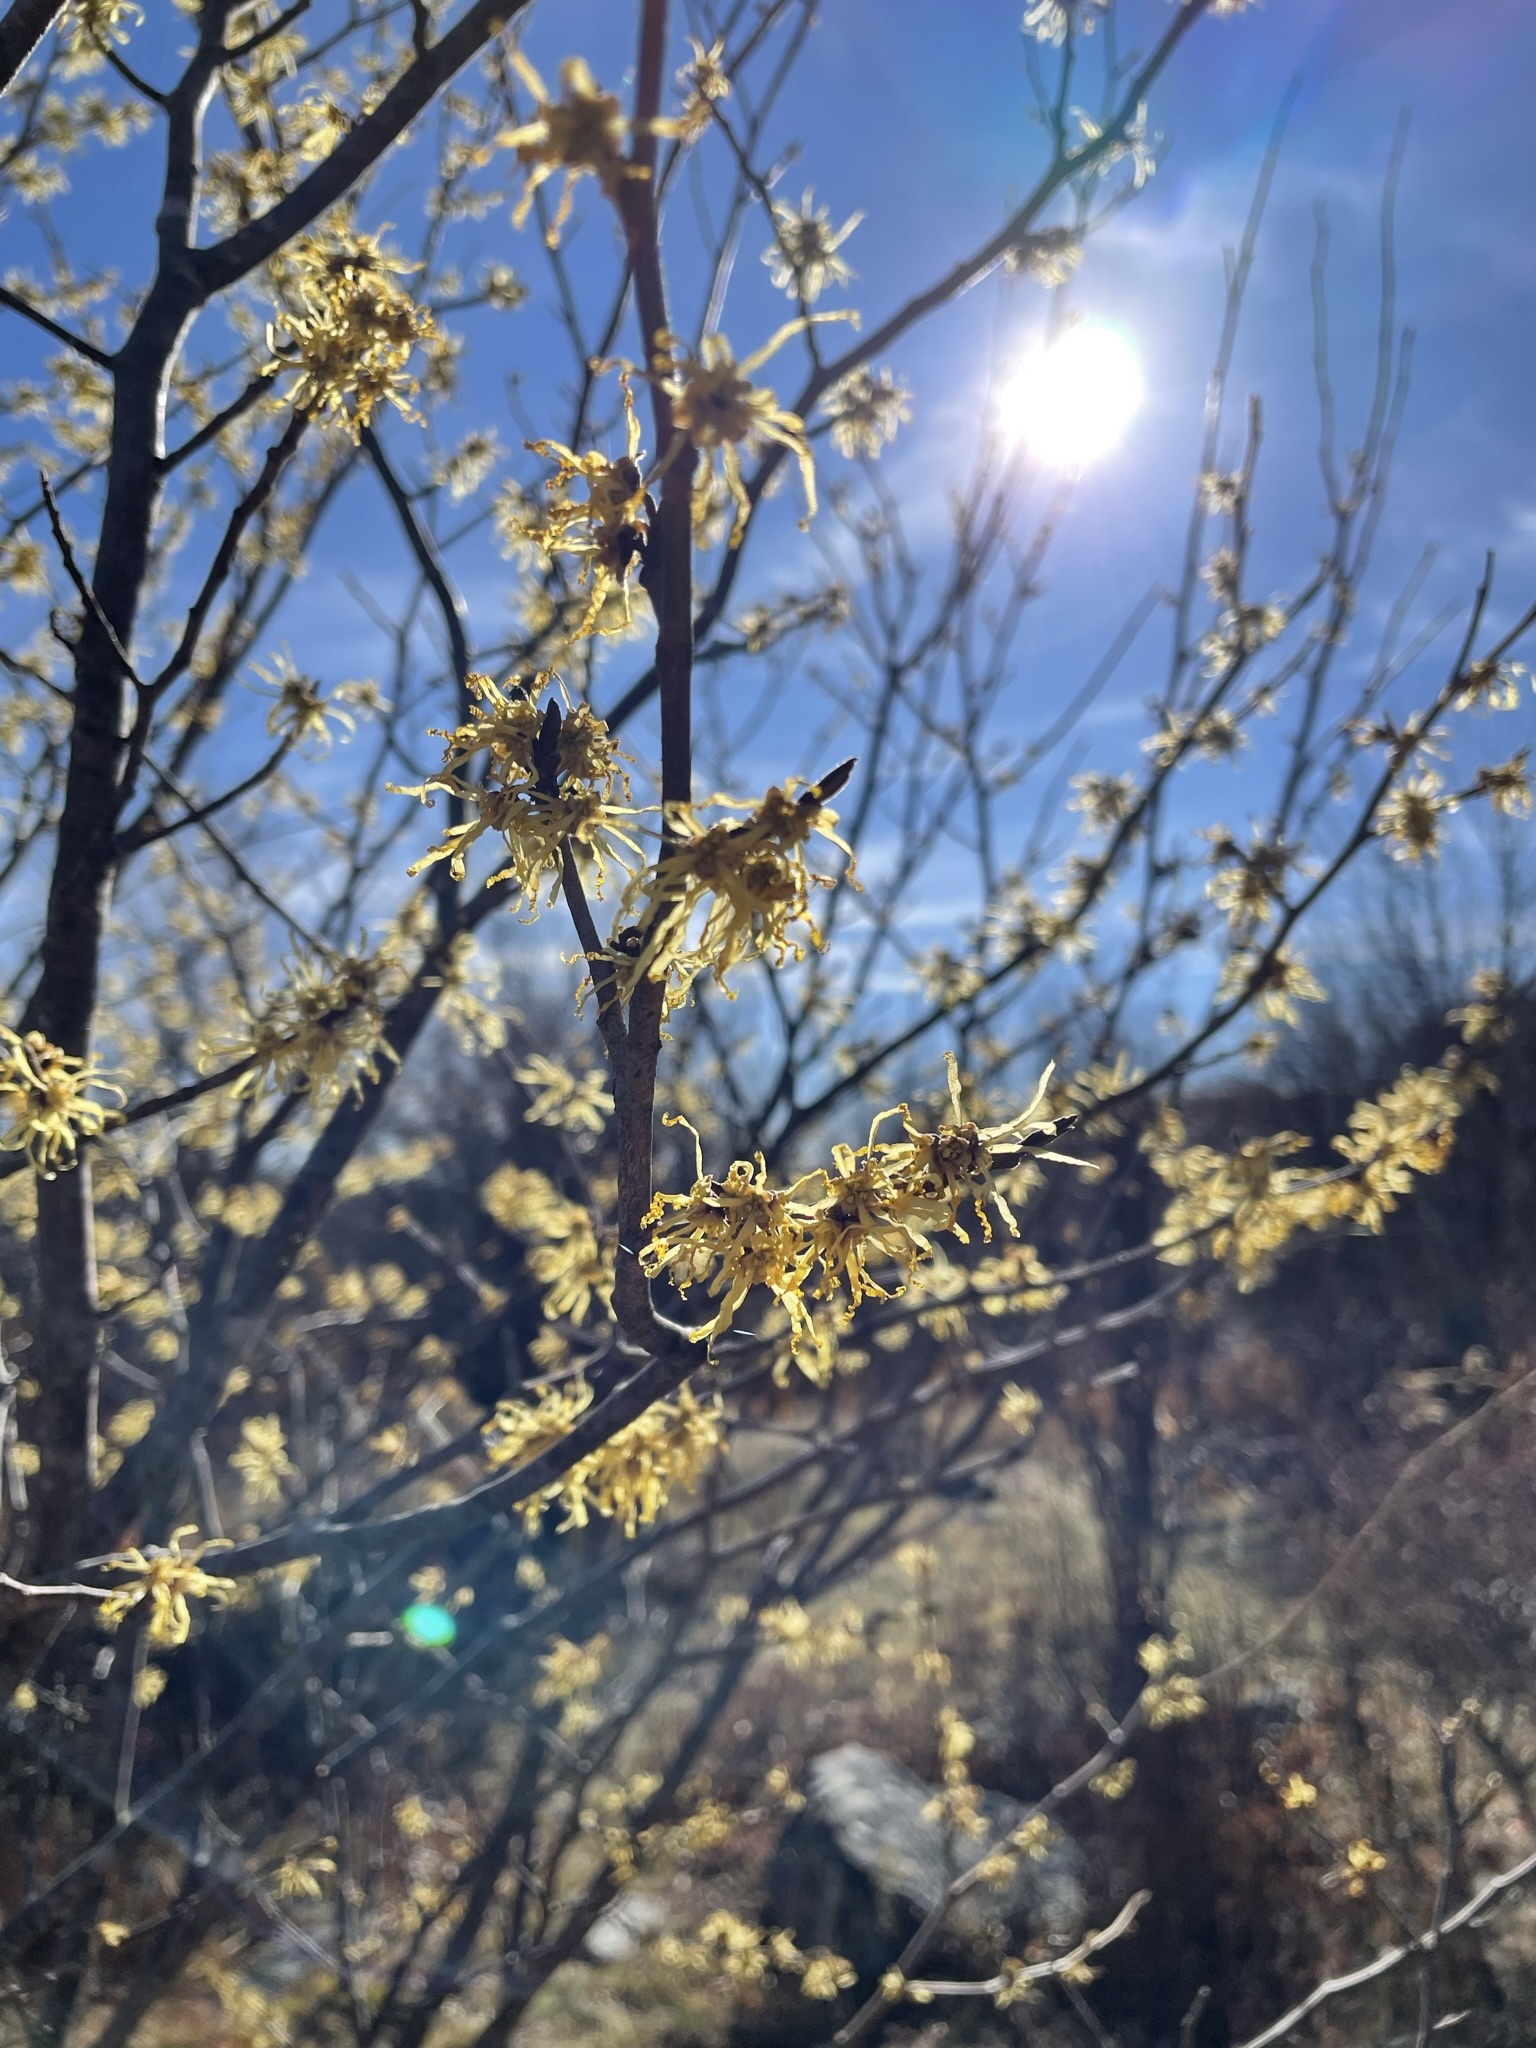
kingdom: Plantae
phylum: Tracheophyta
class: Magnoliopsida
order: Saxifragales
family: Hamamelidaceae
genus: Hamamelis
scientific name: Hamamelis virginiana
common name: Witch-hazel
